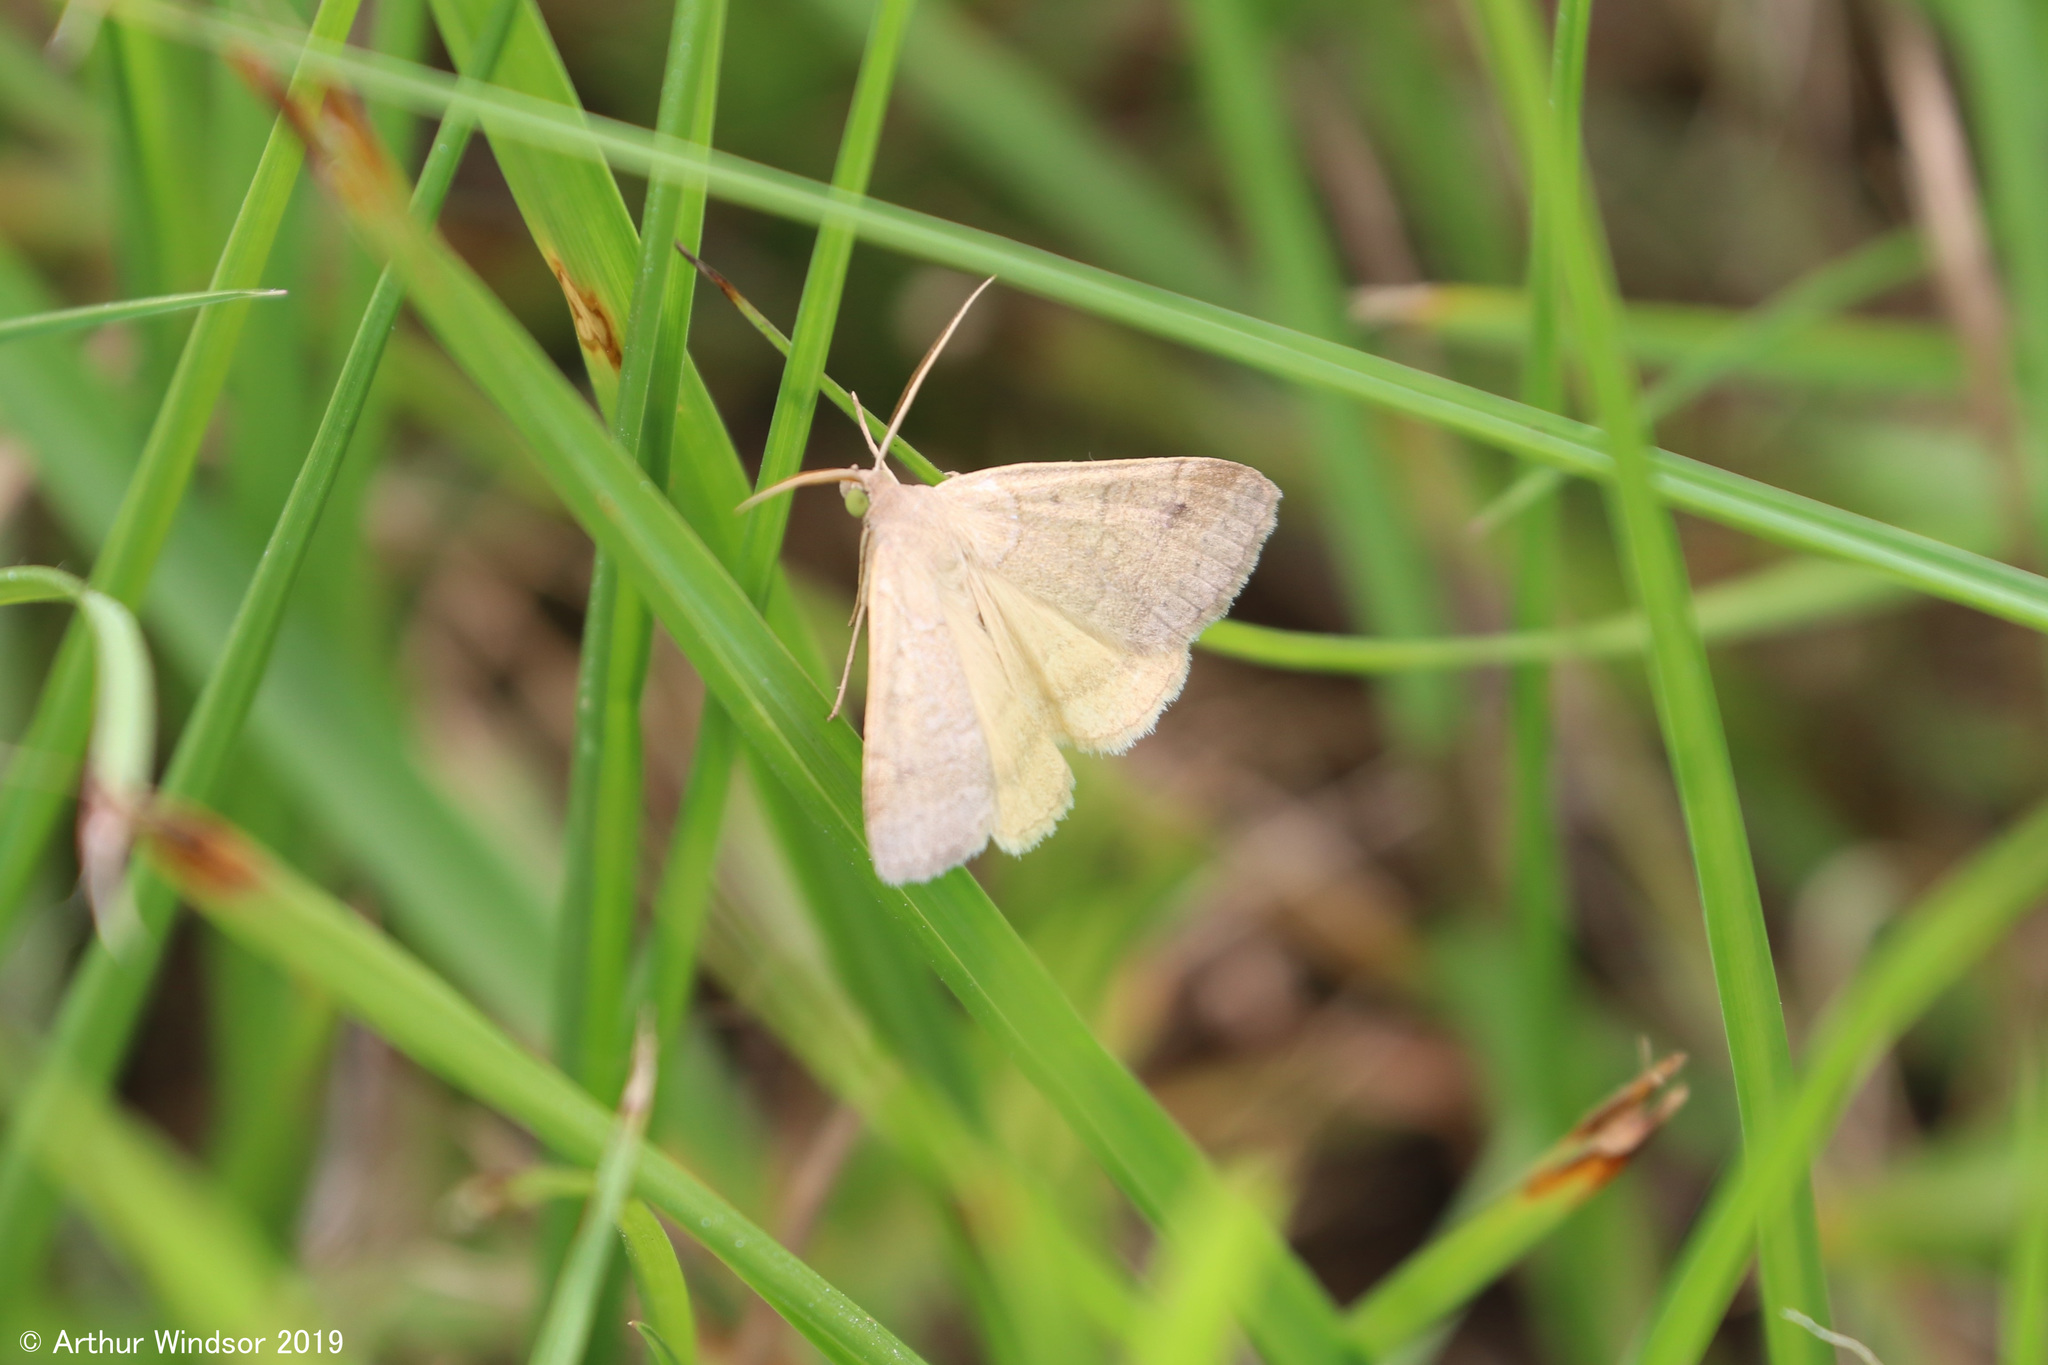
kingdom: Animalia
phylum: Arthropoda
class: Insecta
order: Lepidoptera
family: Erebidae
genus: Caenurgia
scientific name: Caenurgia chloropha
